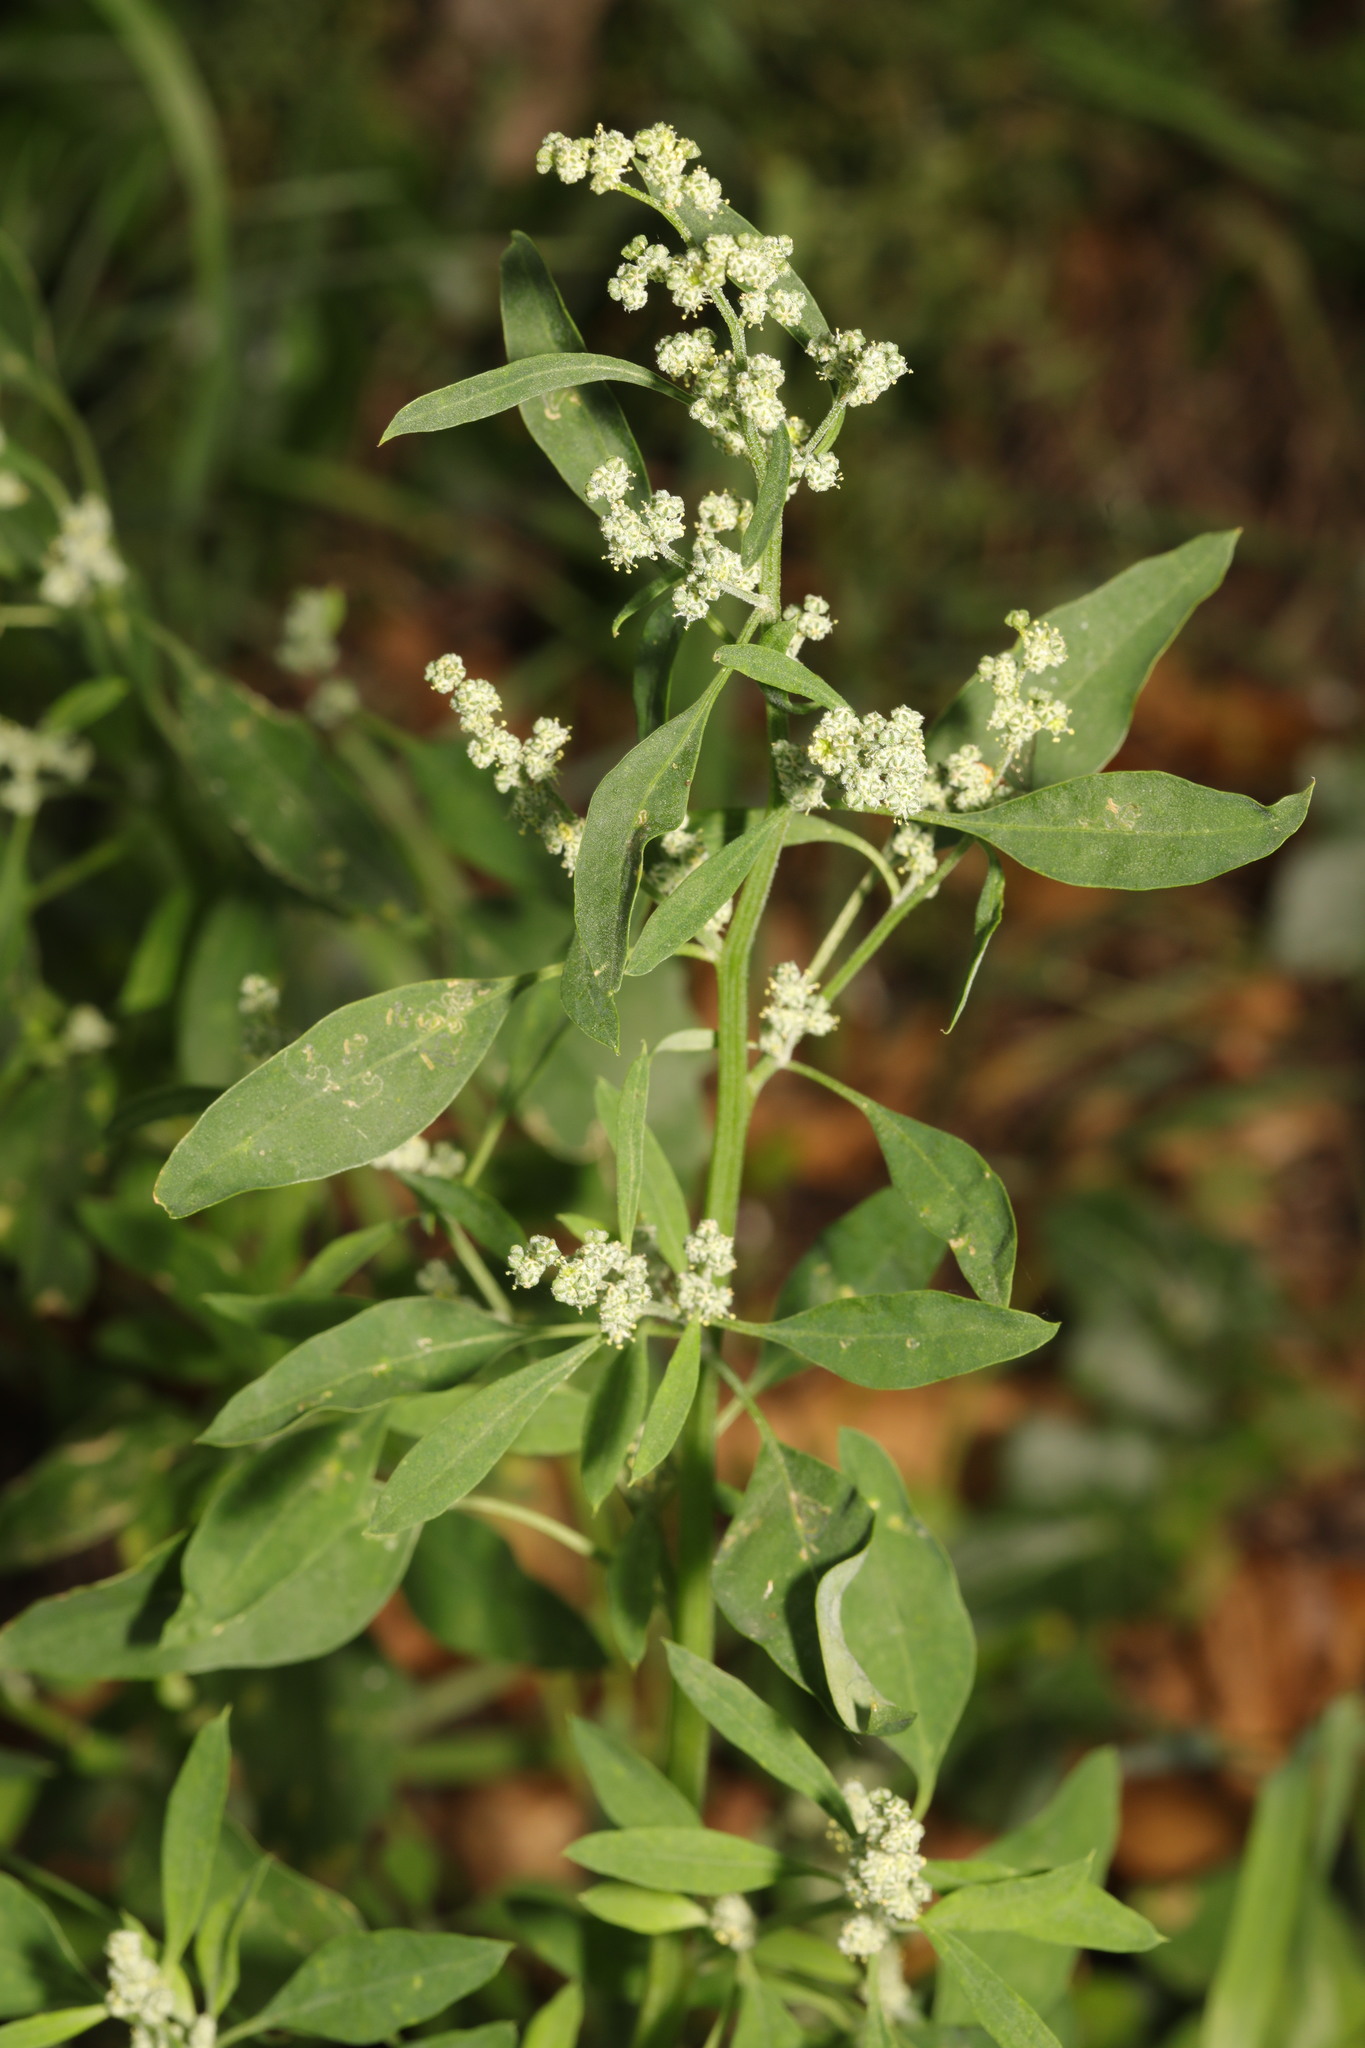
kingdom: Plantae
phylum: Tracheophyta
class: Magnoliopsida
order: Caryophyllales
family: Amaranthaceae
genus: Chenopodium
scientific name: Chenopodium album
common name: Fat-hen
